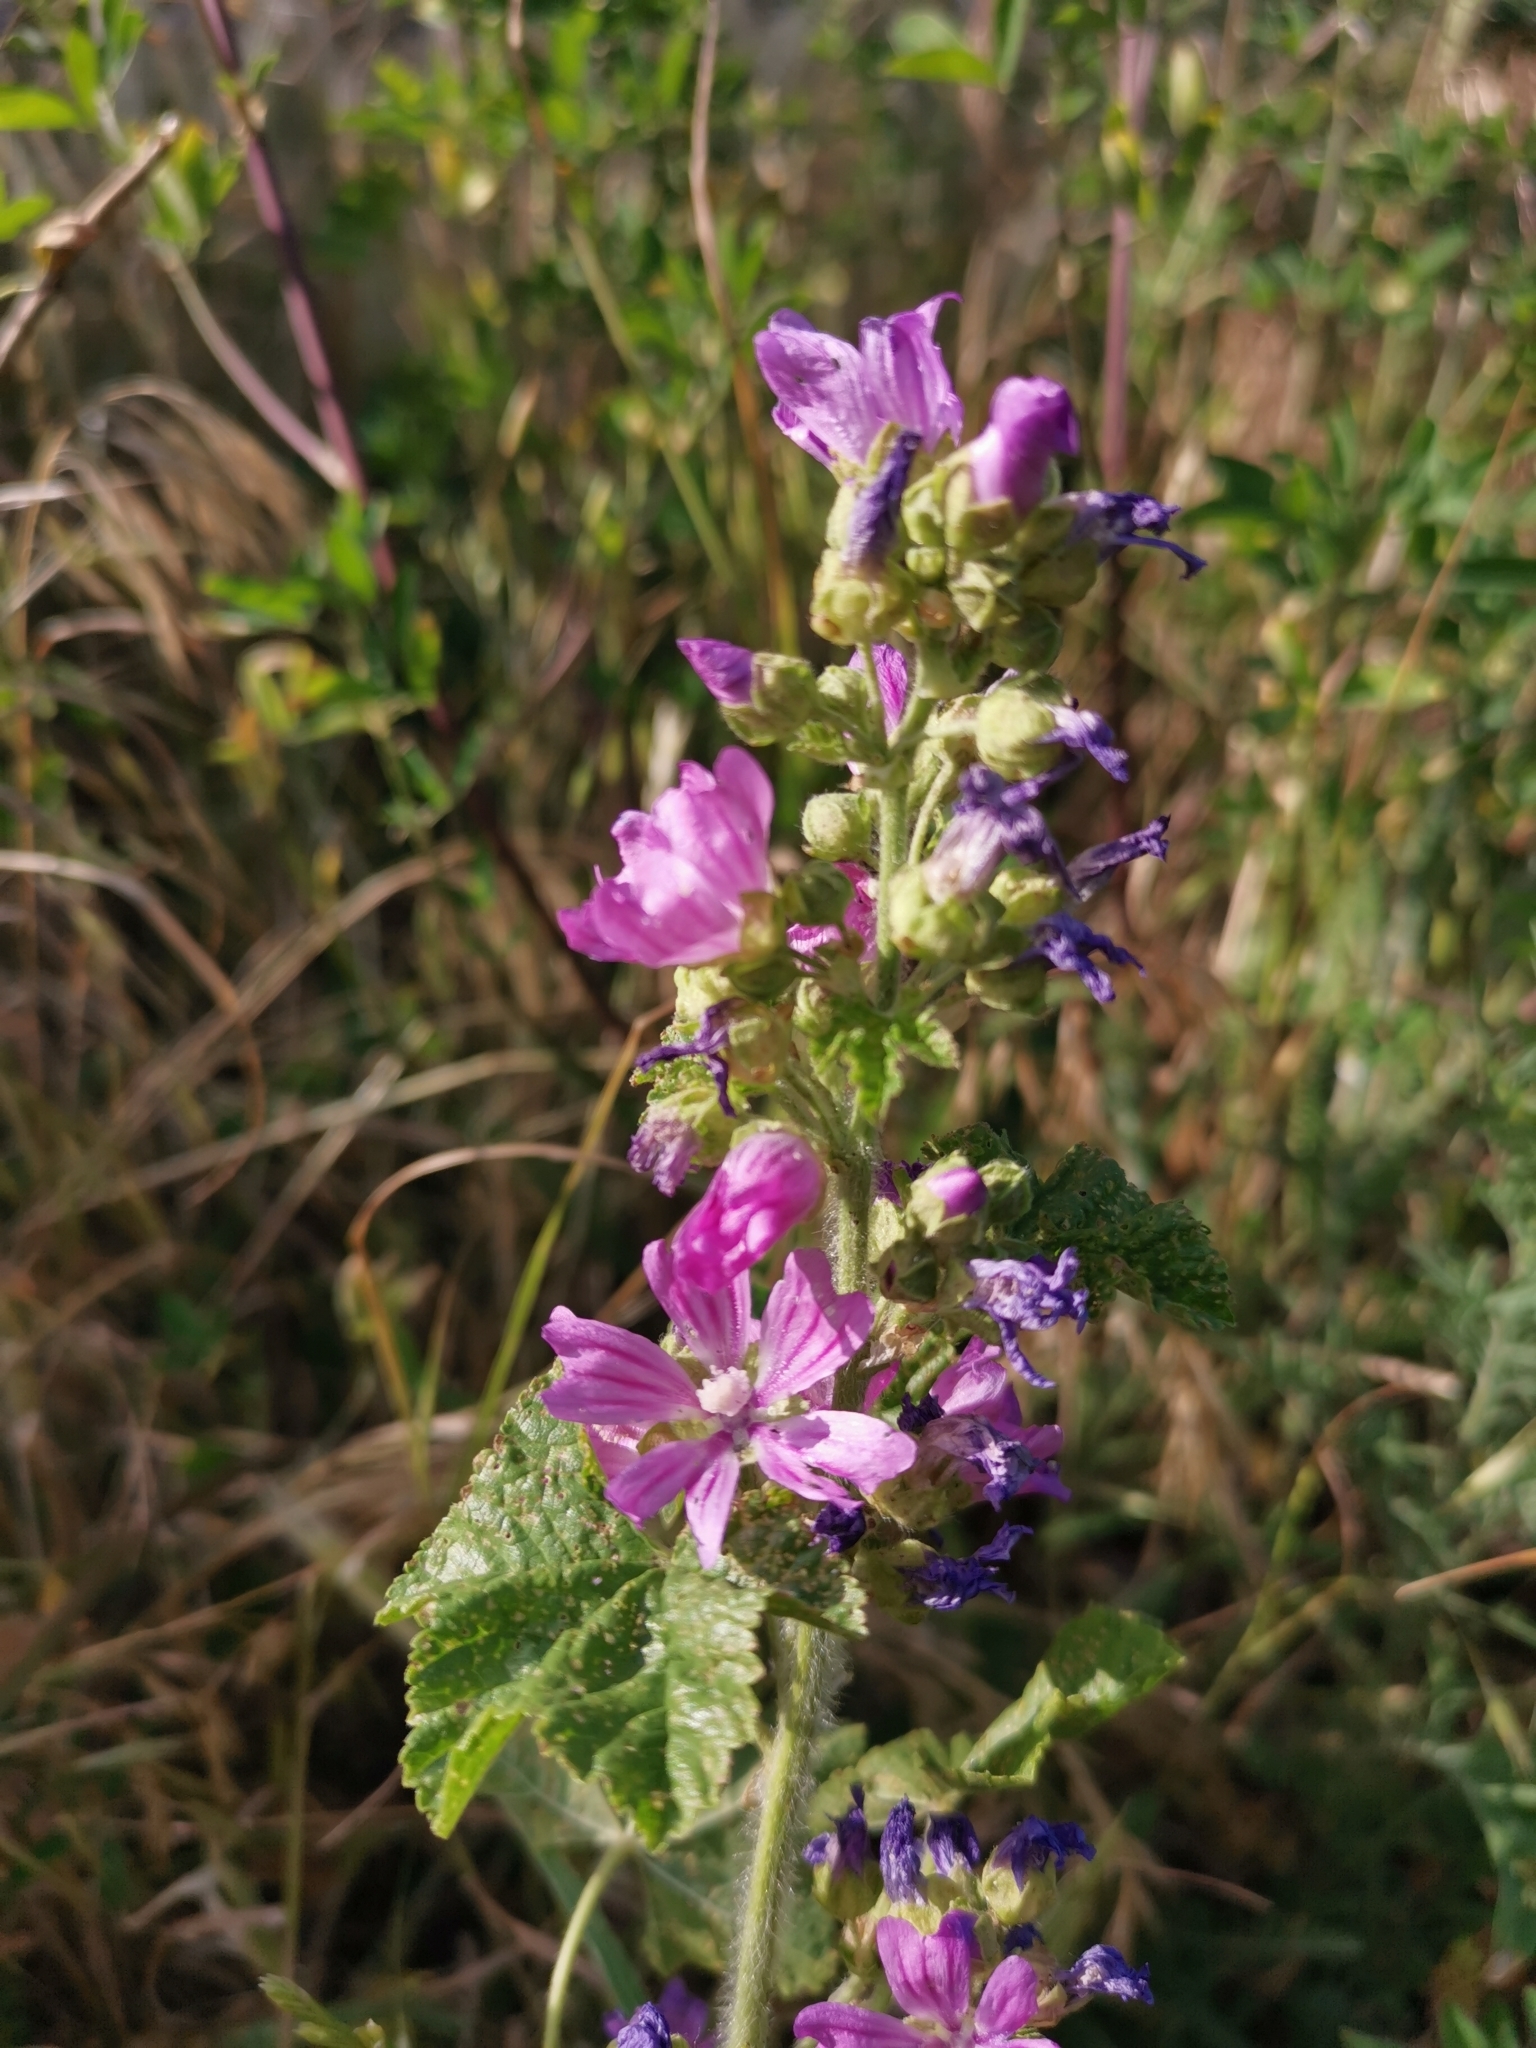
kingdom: Plantae
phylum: Tracheophyta
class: Magnoliopsida
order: Malvales
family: Malvaceae
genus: Malva
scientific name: Malva sylvestris
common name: Common mallow
